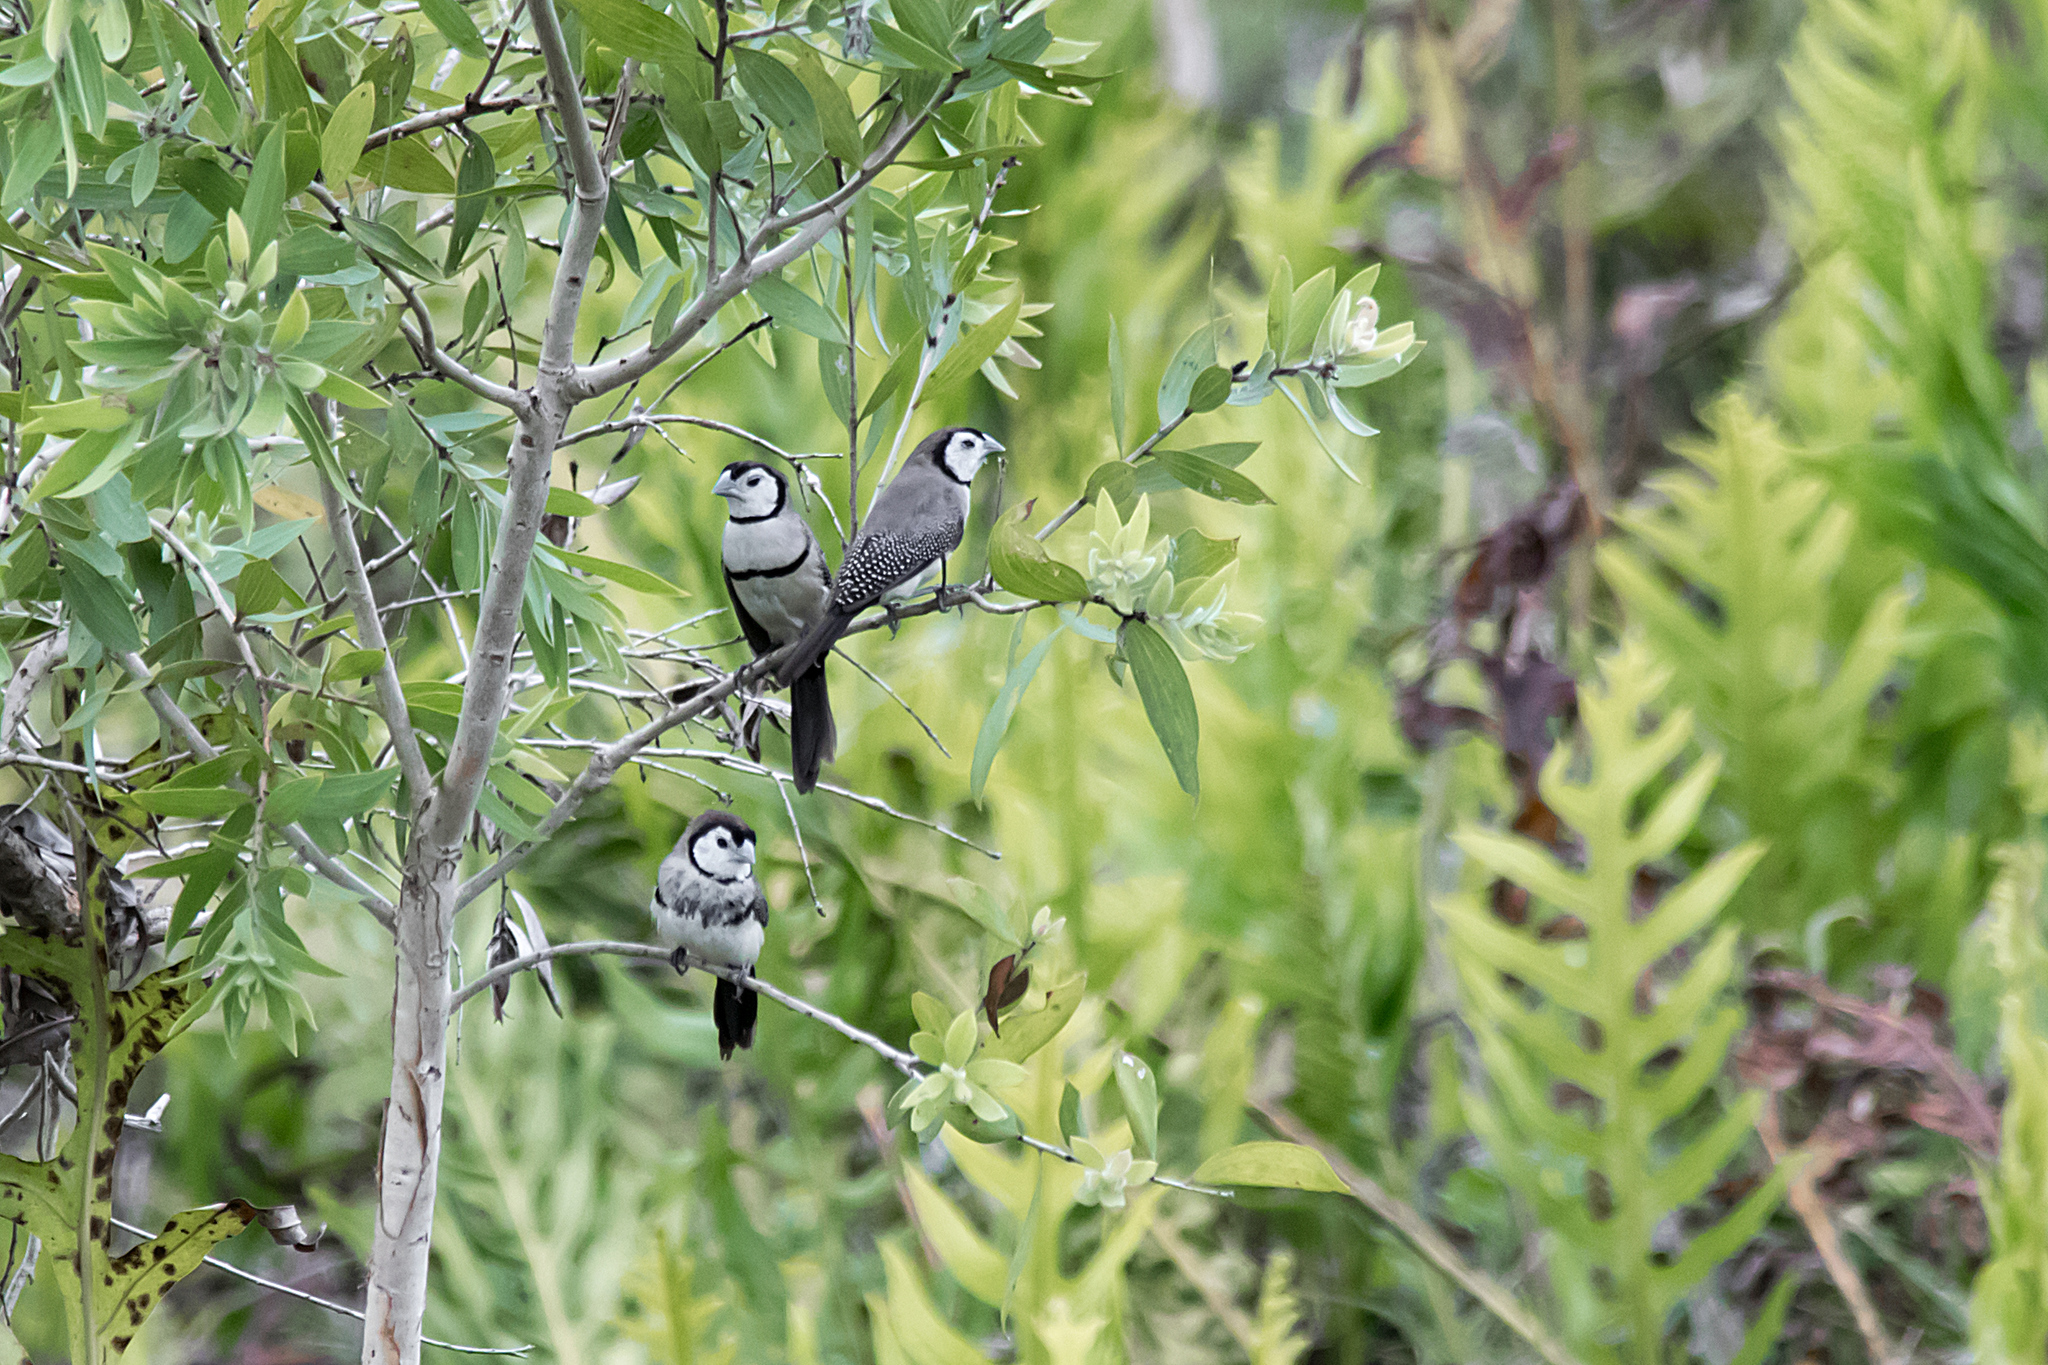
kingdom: Animalia
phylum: Chordata
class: Aves
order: Passeriformes
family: Estrildidae
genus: Taeniopygia
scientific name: Taeniopygia bichenovii
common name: Double-barred finch
